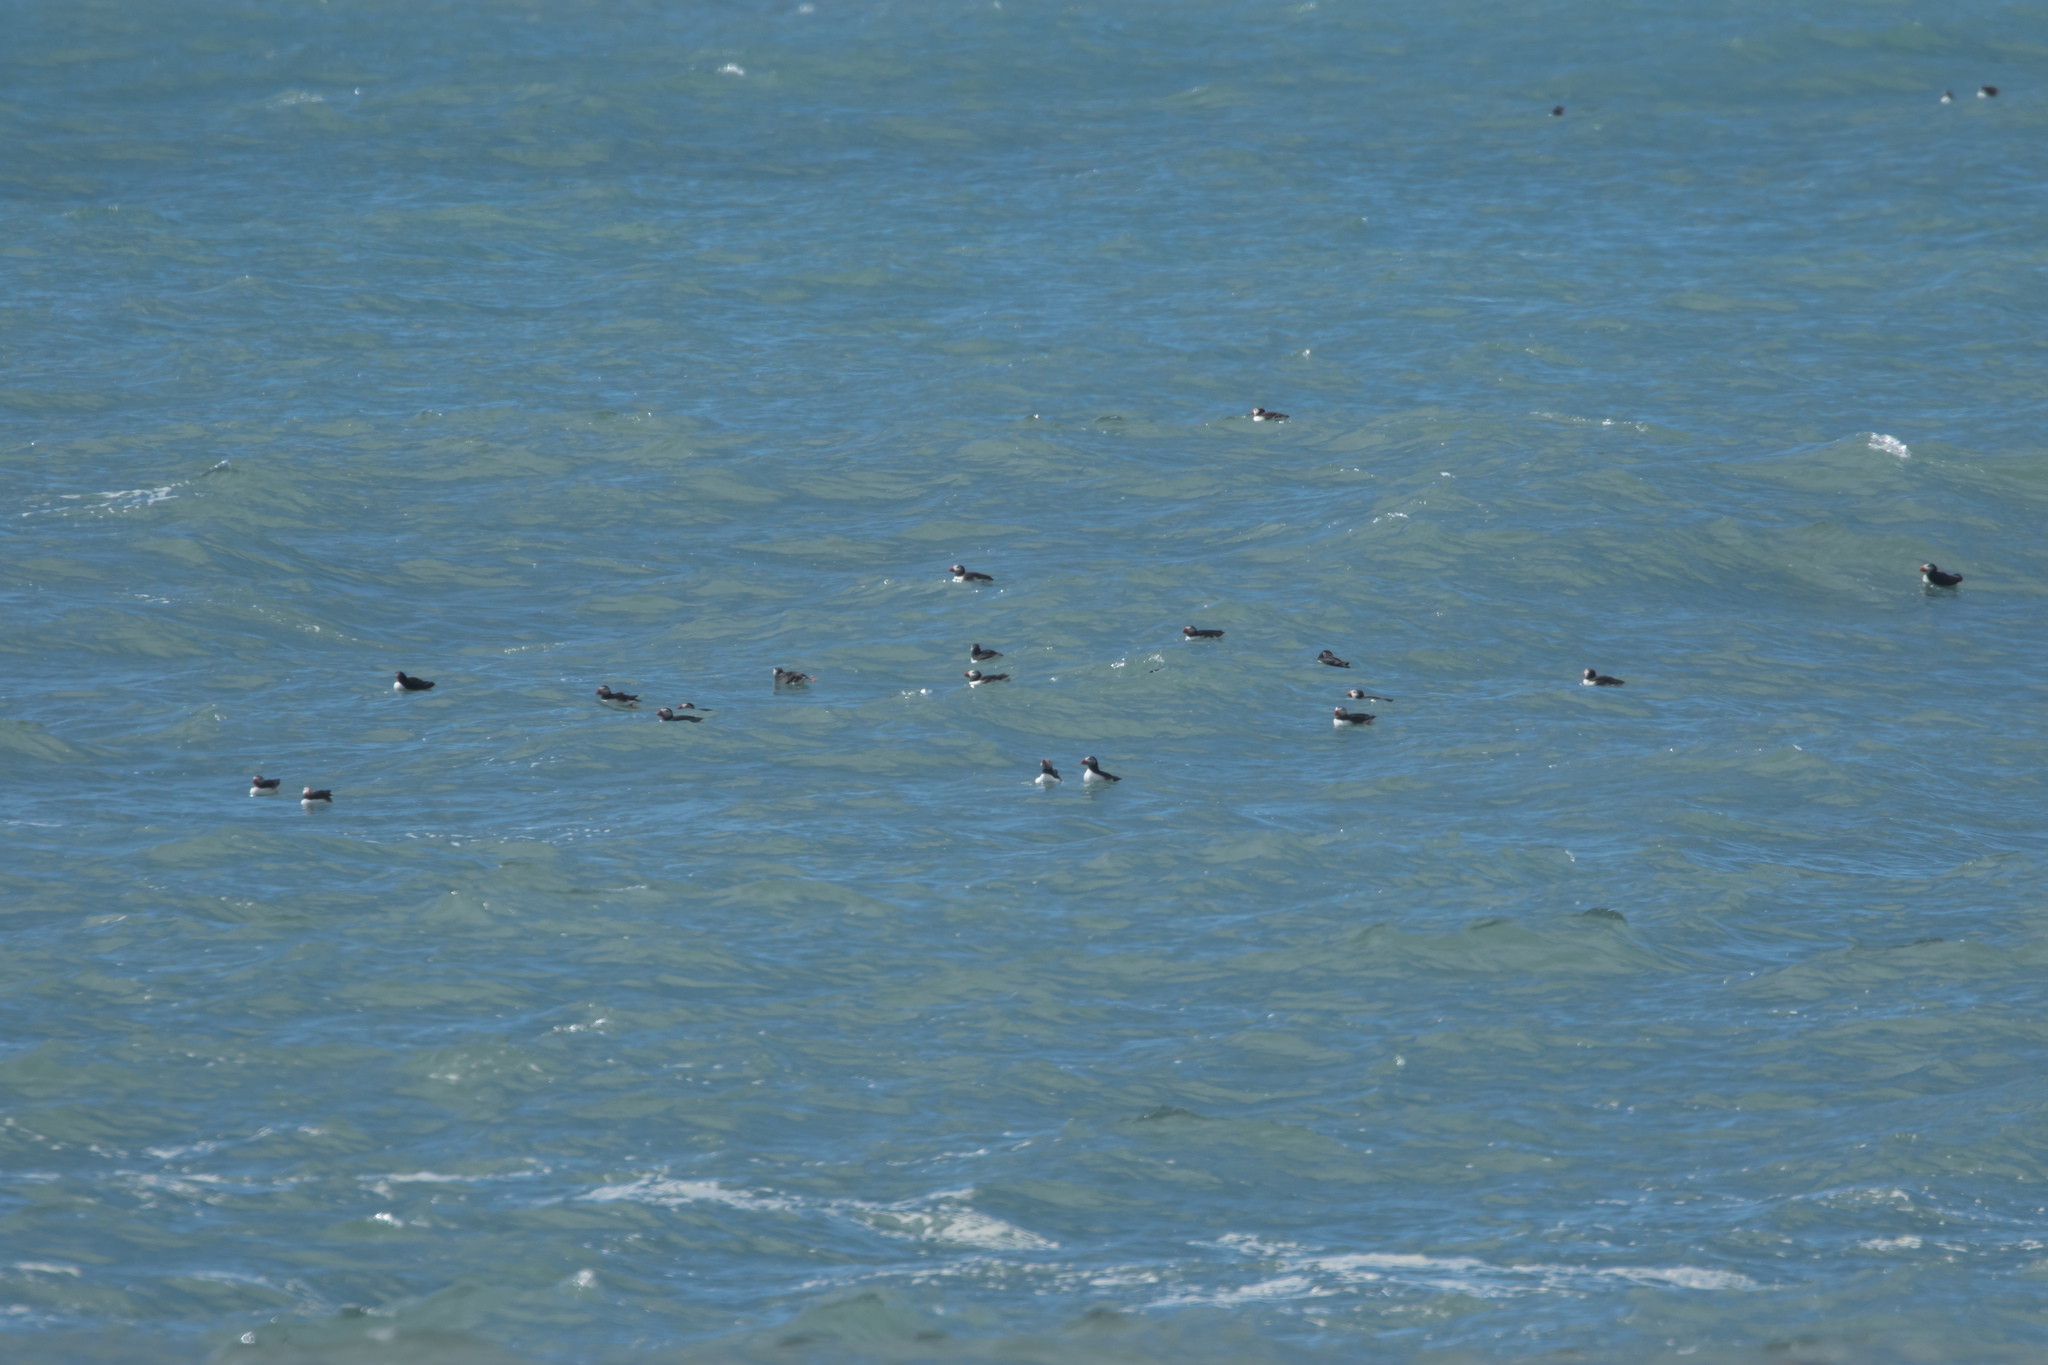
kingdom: Animalia
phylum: Chordata
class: Aves
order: Charadriiformes
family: Alcidae
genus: Fratercula
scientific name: Fratercula arctica
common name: Atlantic puffin
